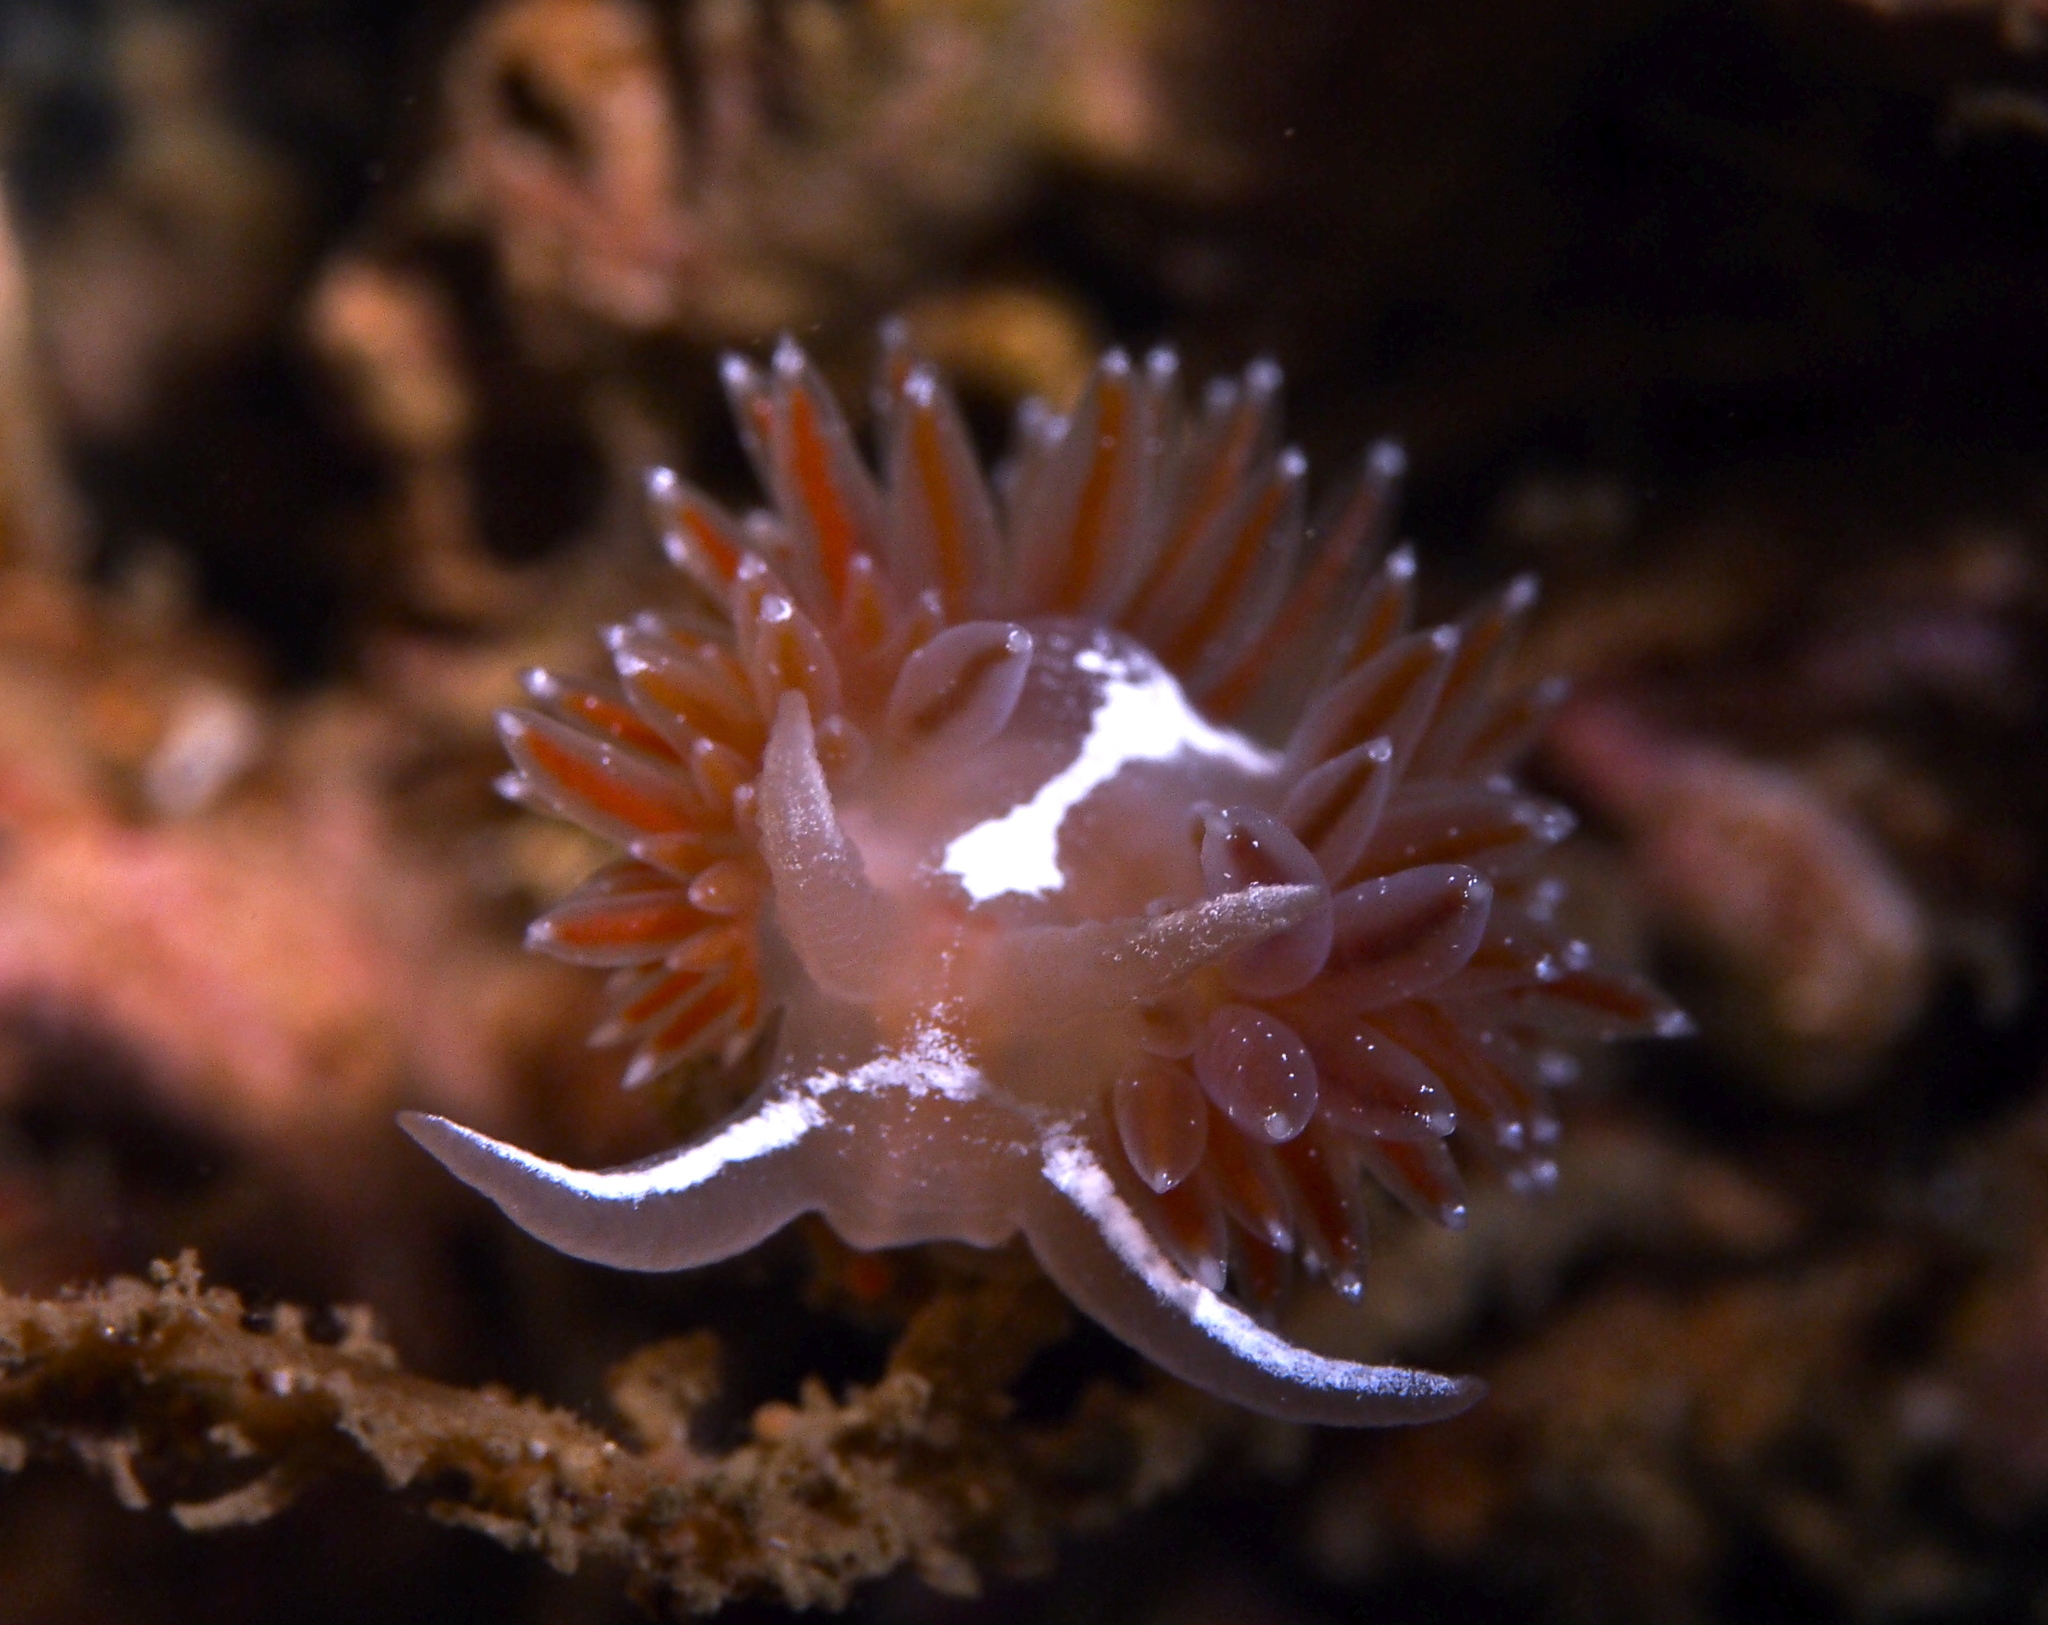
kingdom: Animalia
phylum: Mollusca
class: Gastropoda
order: Nudibranchia
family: Coryphellidae
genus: Coryphella
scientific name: Coryphella orjani
